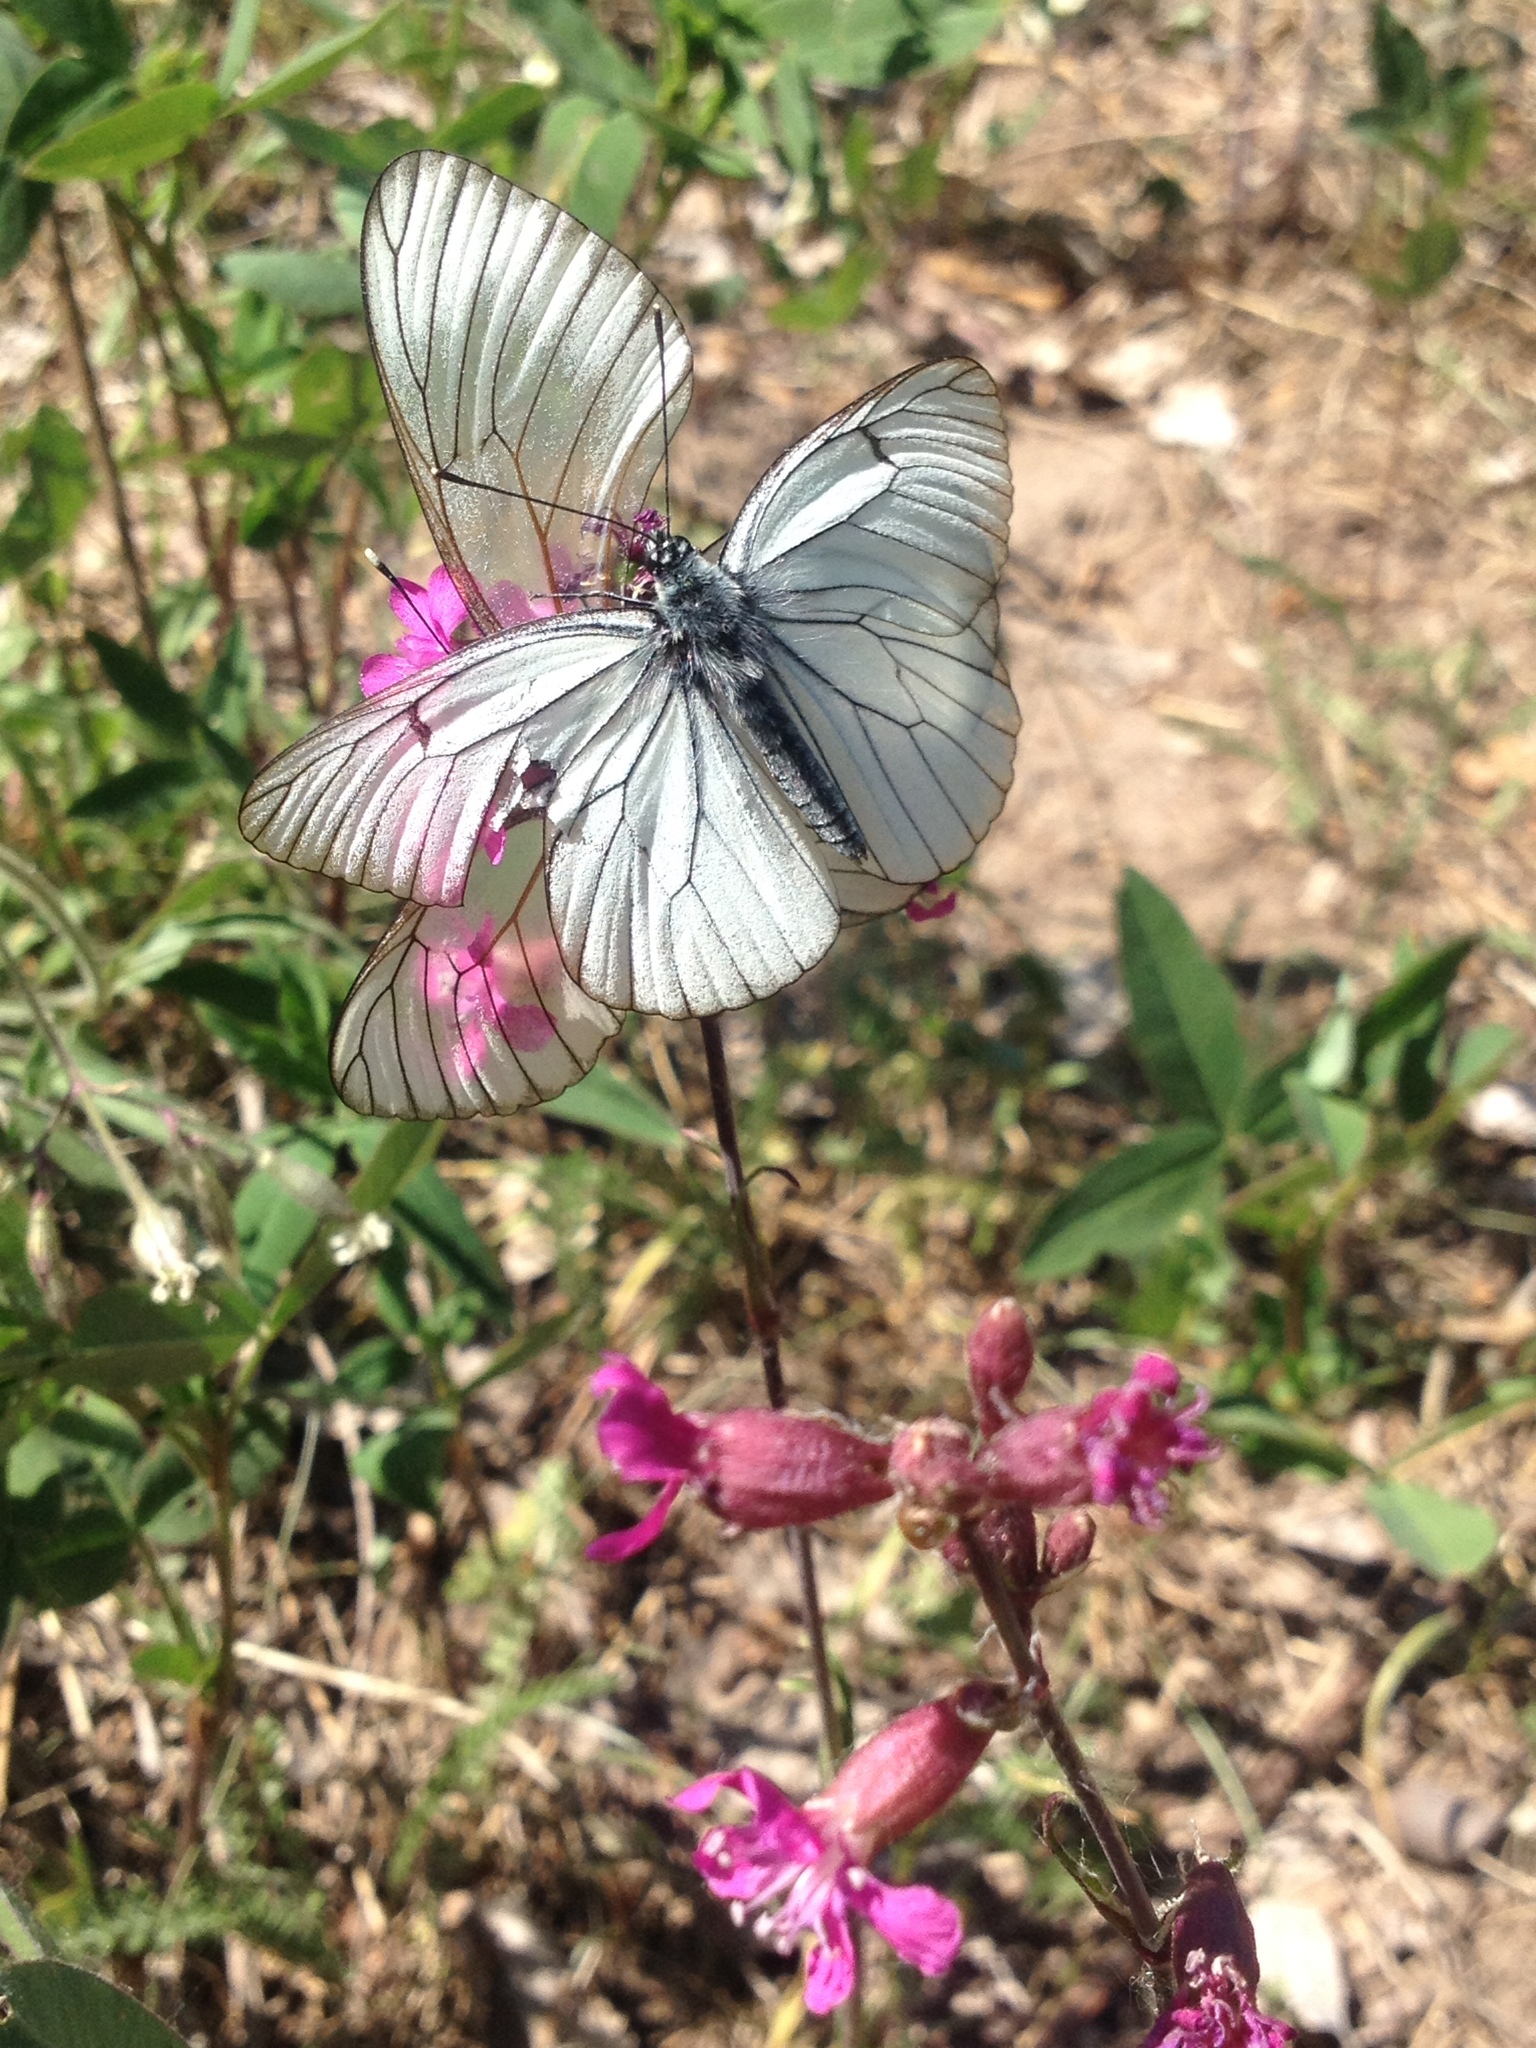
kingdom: Animalia
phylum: Arthropoda
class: Insecta
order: Lepidoptera
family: Pieridae
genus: Aporia
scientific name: Aporia crataegi
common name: Black-veined white
